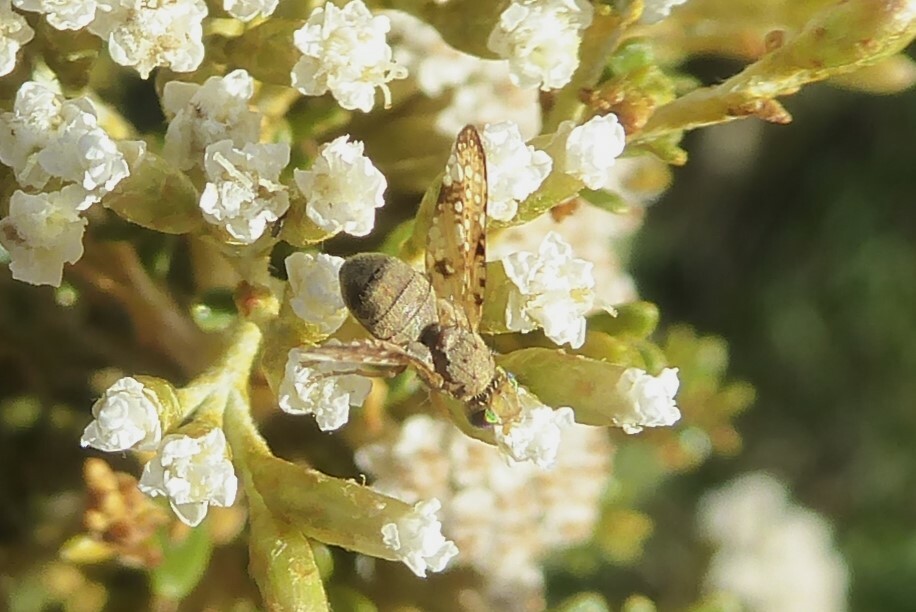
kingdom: Animalia
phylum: Arthropoda
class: Insecta
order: Diptera
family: Tephritidae
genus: Austrotephritis
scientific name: Austrotephritis
